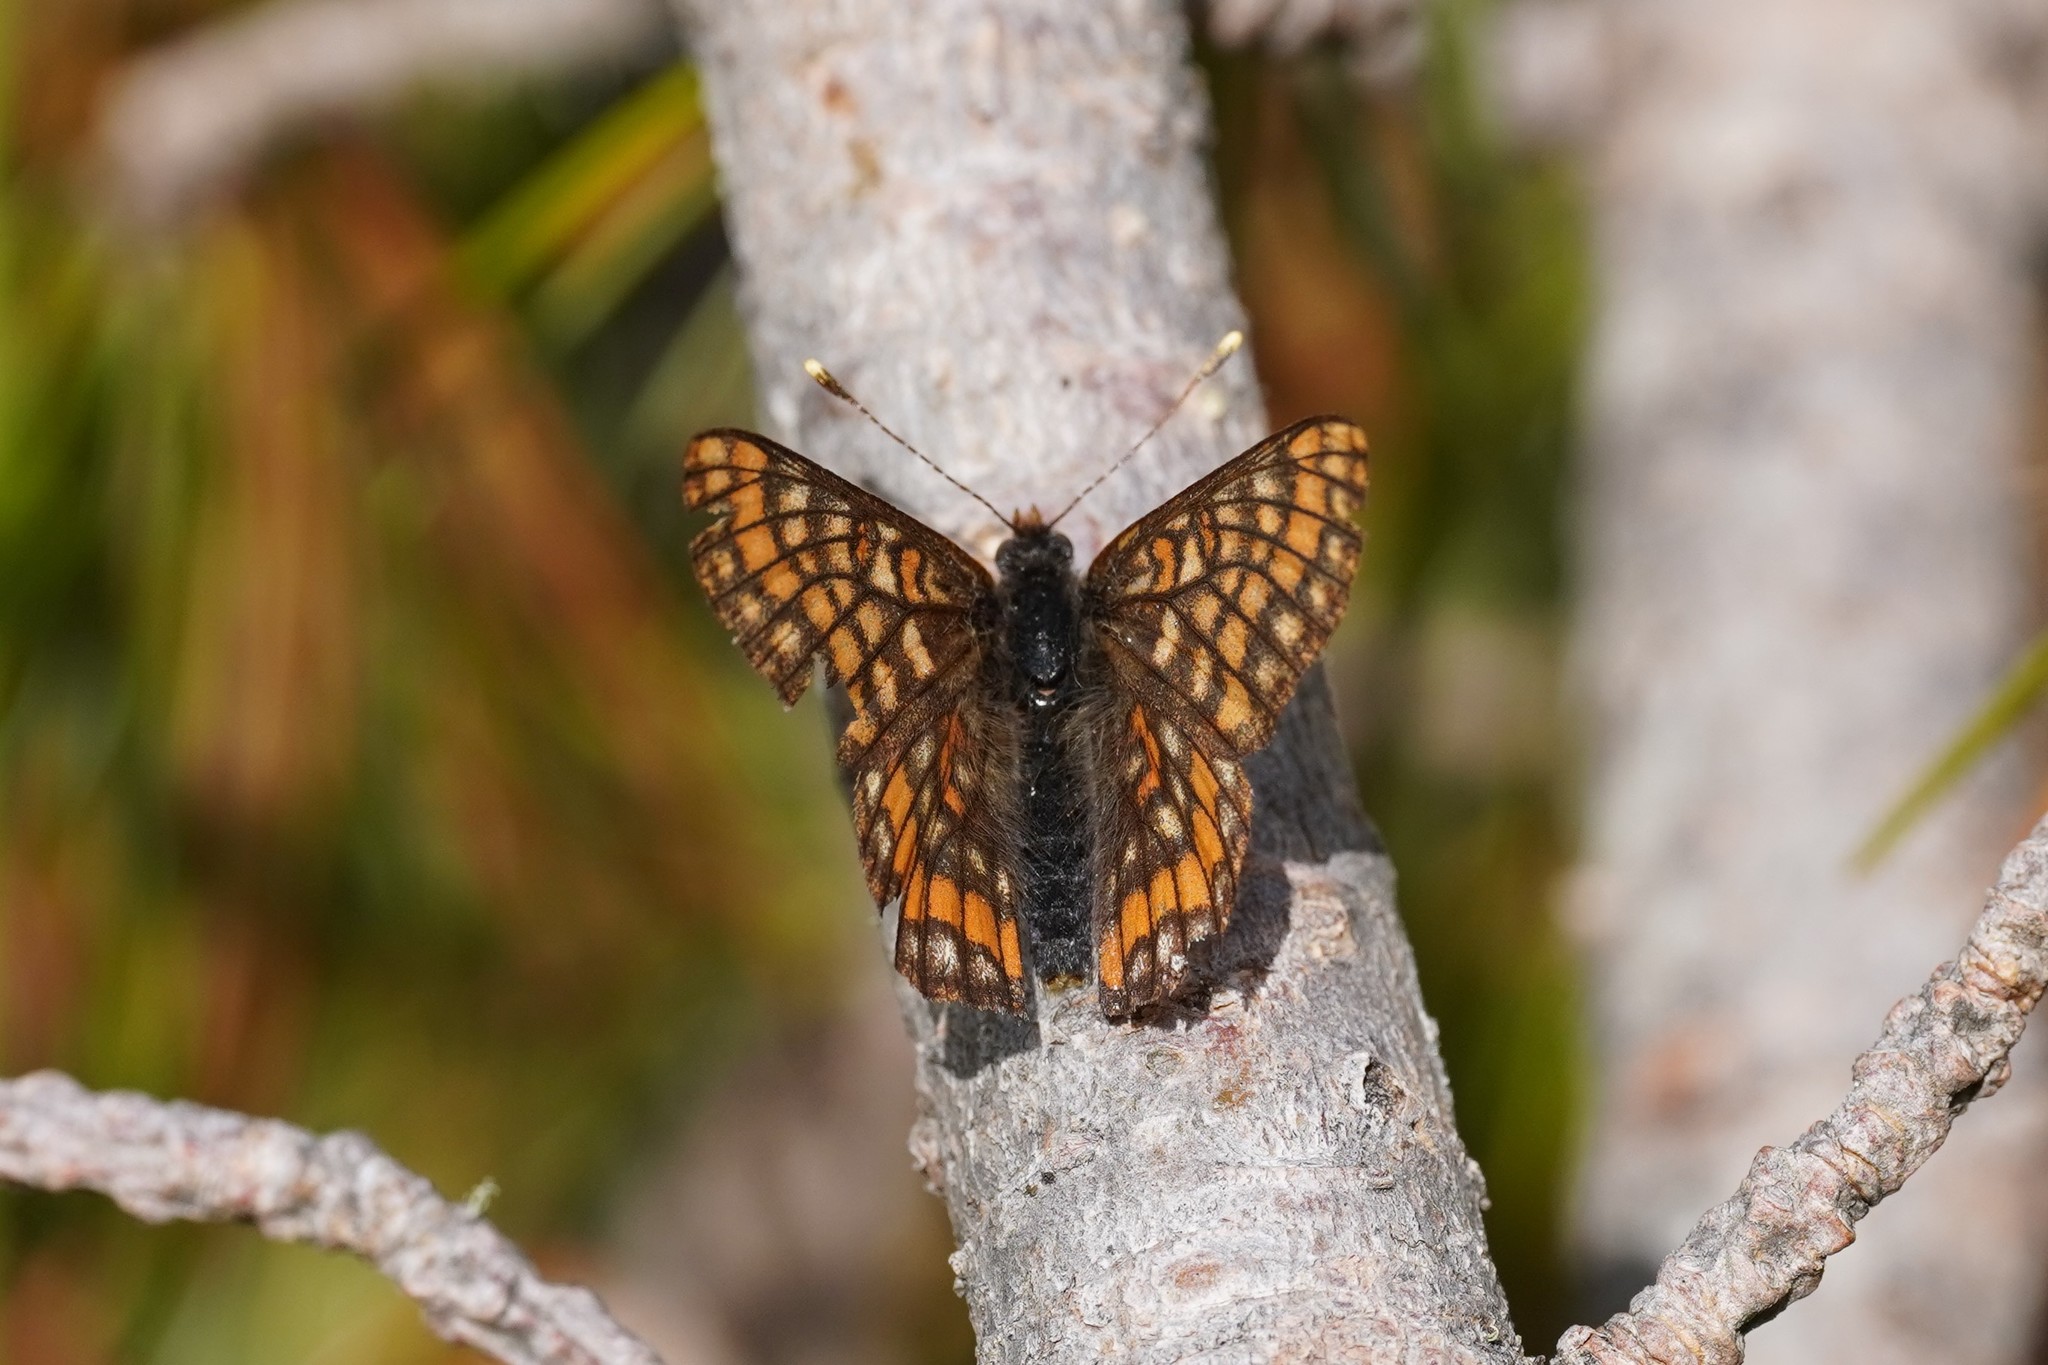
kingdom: Animalia
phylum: Arthropoda
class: Insecta
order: Lepidoptera
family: Nymphalidae
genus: Hypodryas
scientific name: Hypodryas intermedia
